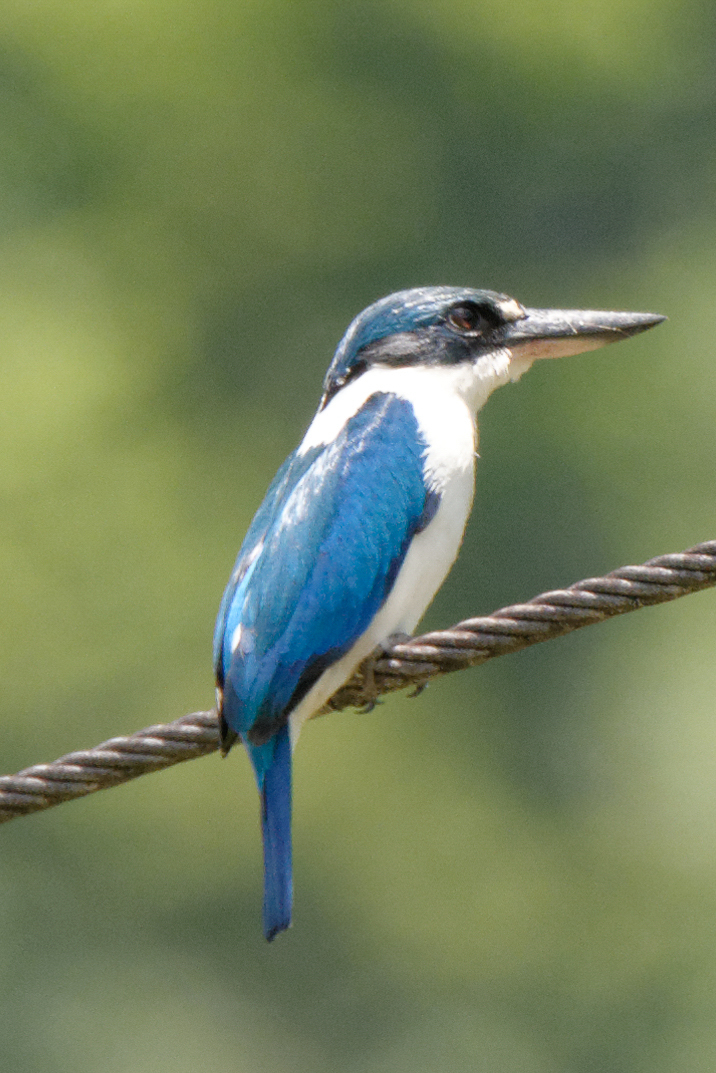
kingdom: Animalia
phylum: Chordata
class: Aves
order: Coraciiformes
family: Alcedinidae
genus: Todiramphus
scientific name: Todiramphus chloris
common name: Collared kingfisher
